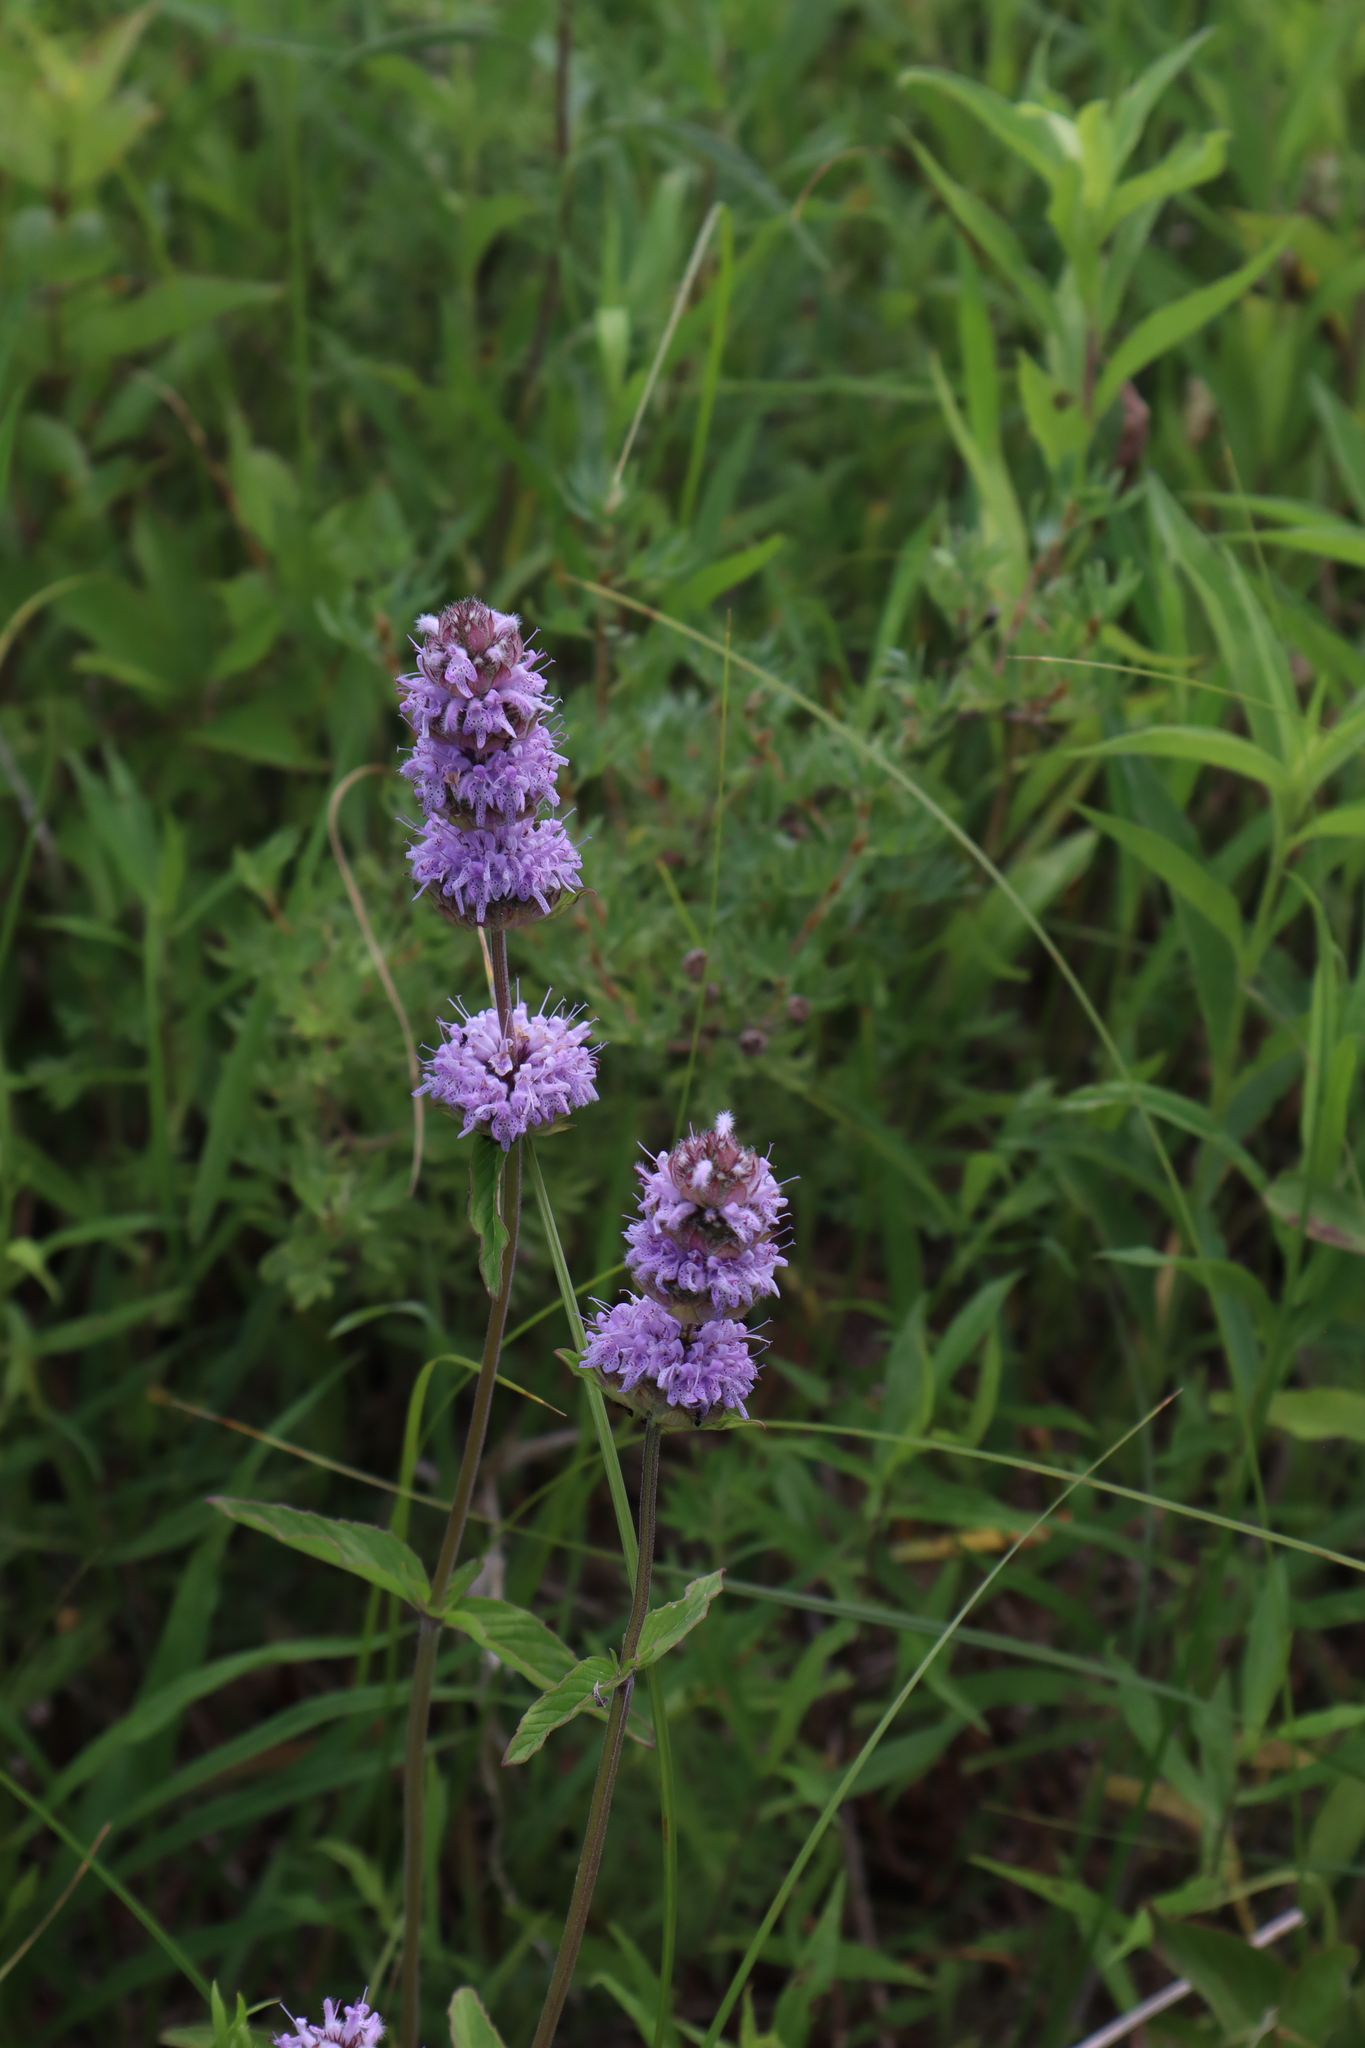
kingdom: Plantae
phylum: Tracheophyta
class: Magnoliopsida
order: Lamiales
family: Lamiaceae
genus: Blephilia
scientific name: Blephilia ciliata
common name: Downy blephilia
